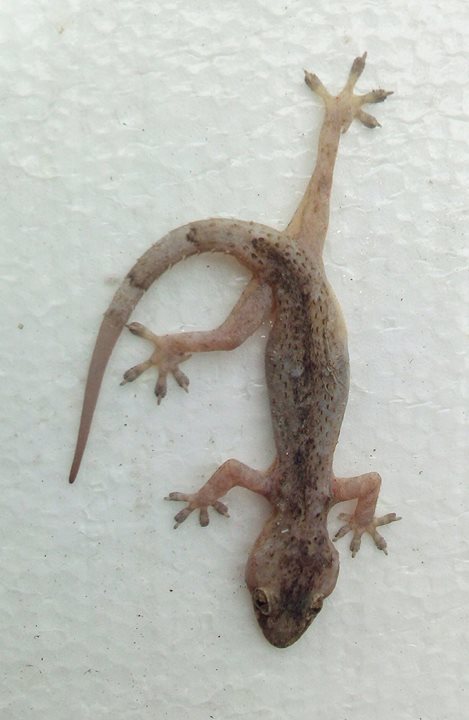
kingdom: Animalia
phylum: Chordata
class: Squamata
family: Gekkonidae
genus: Hemidactylus
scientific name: Hemidactylus mabouia
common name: House gecko
